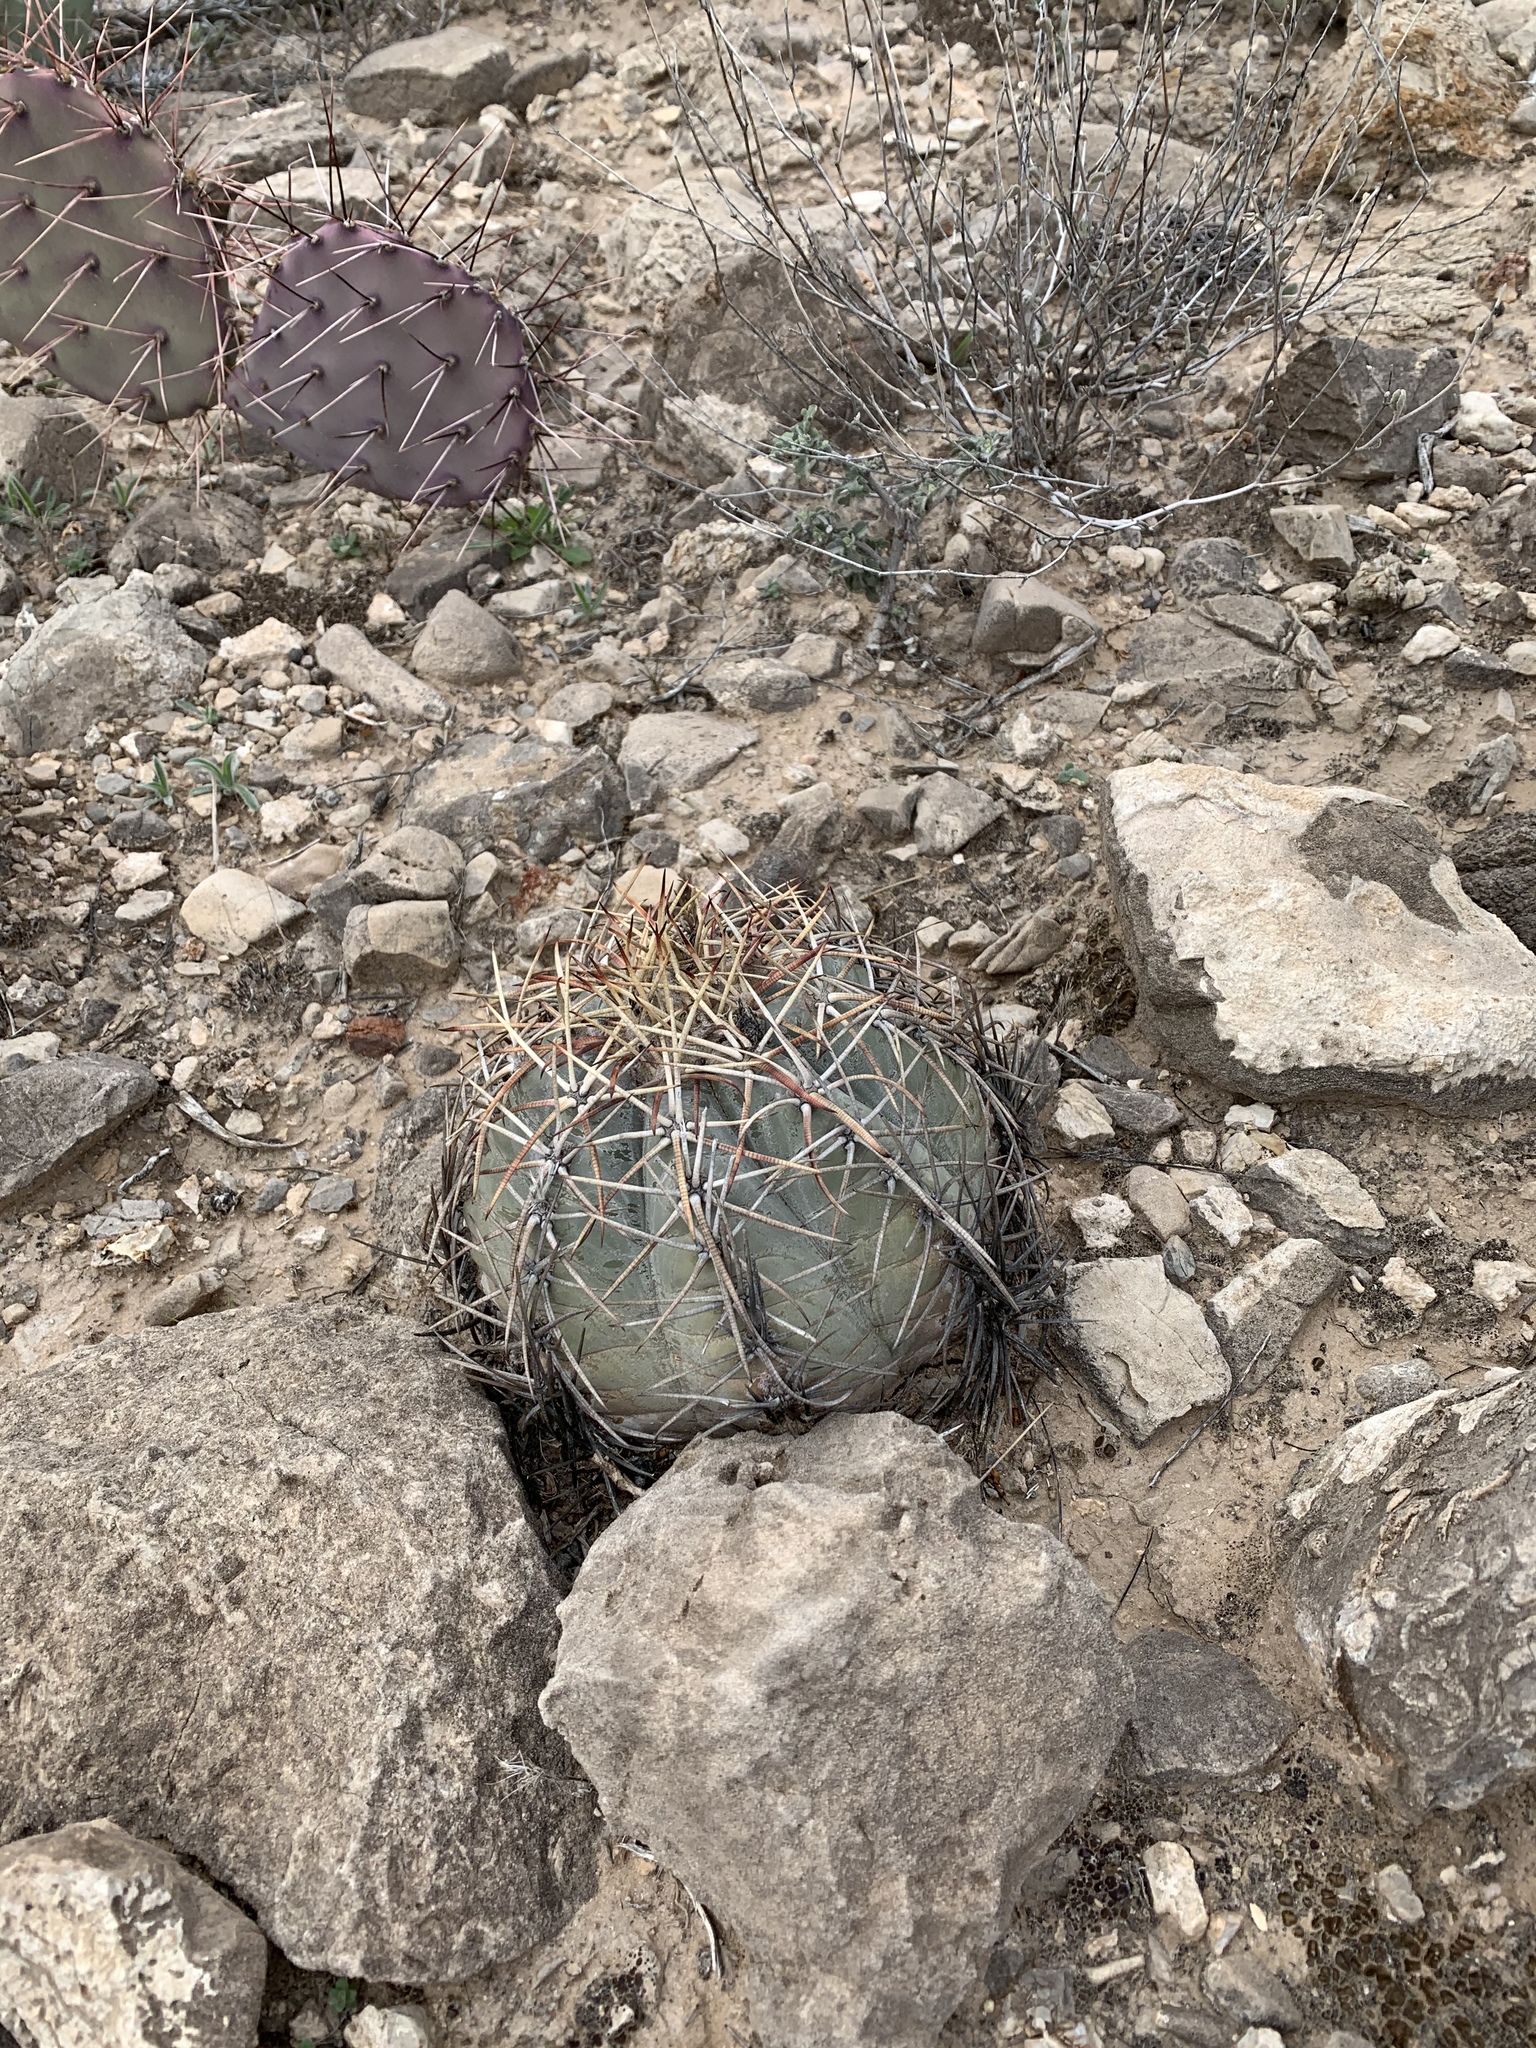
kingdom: Plantae
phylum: Tracheophyta
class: Magnoliopsida
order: Caryophyllales
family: Cactaceae
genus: Echinocactus
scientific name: Echinocactus horizonthalonius
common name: Devilshead
